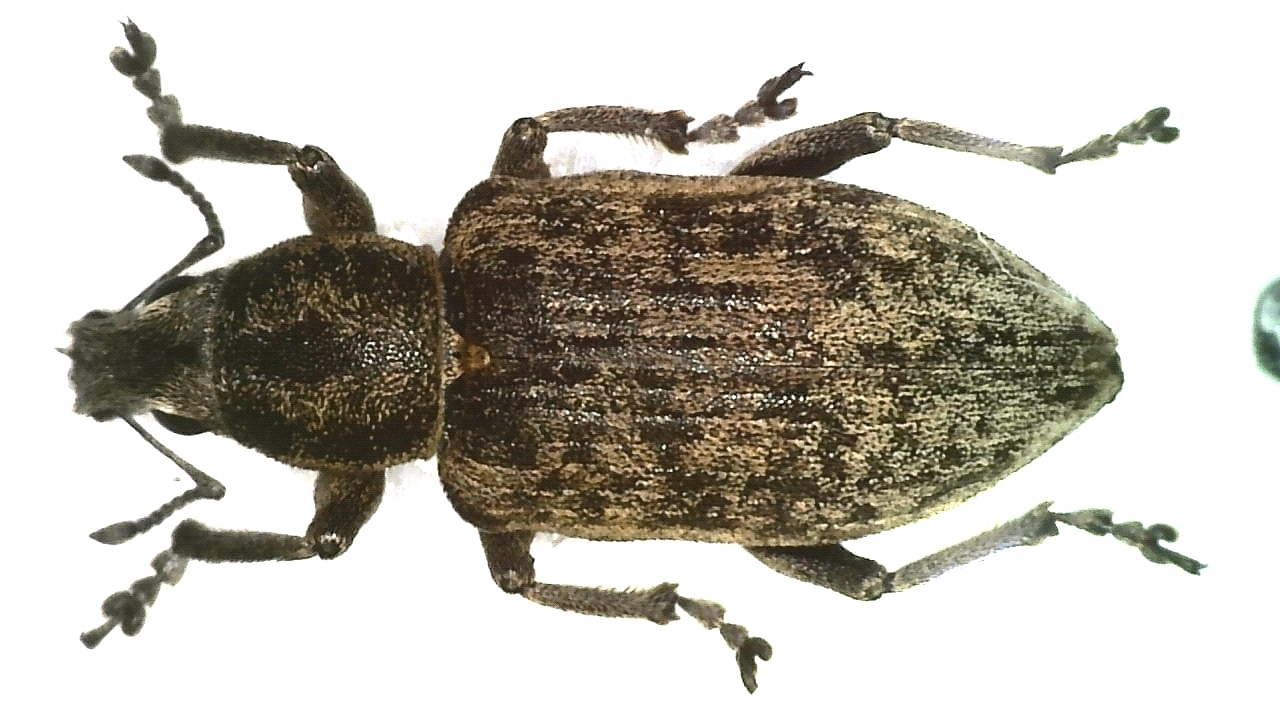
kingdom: Animalia
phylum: Arthropoda
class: Insecta
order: Coleoptera
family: Curculionidae
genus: Tanymecus
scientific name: Tanymecus palliatus
